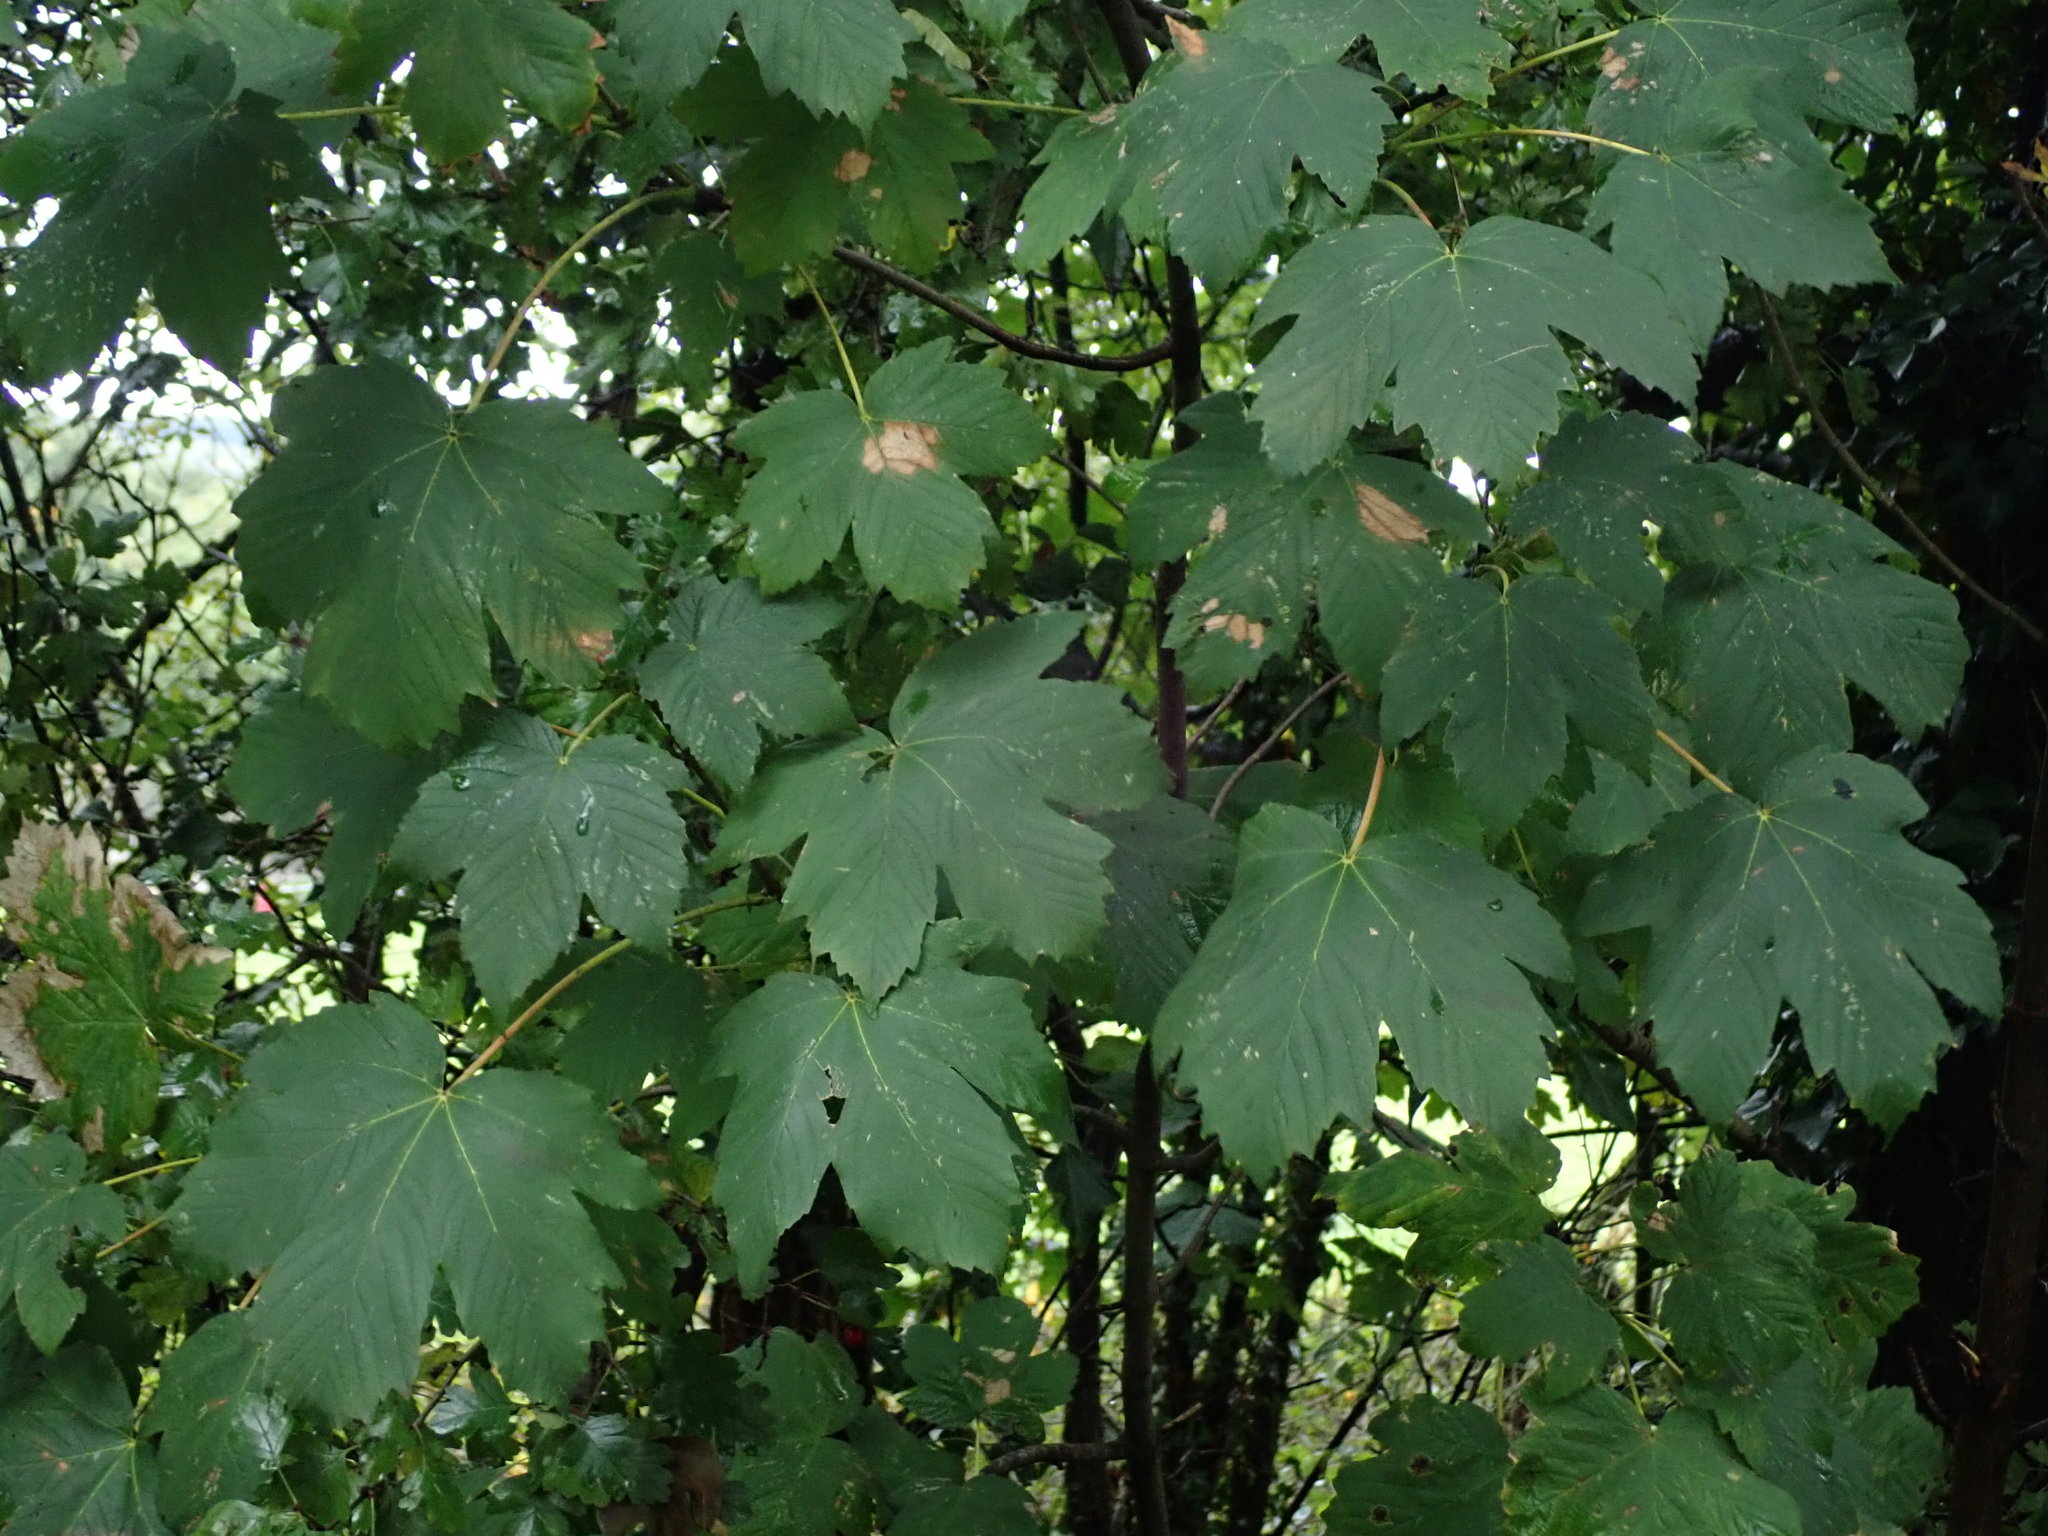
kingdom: Plantae
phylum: Tracheophyta
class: Magnoliopsida
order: Sapindales
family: Sapindaceae
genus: Acer
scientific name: Acer pseudoplatanus
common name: Sycamore
